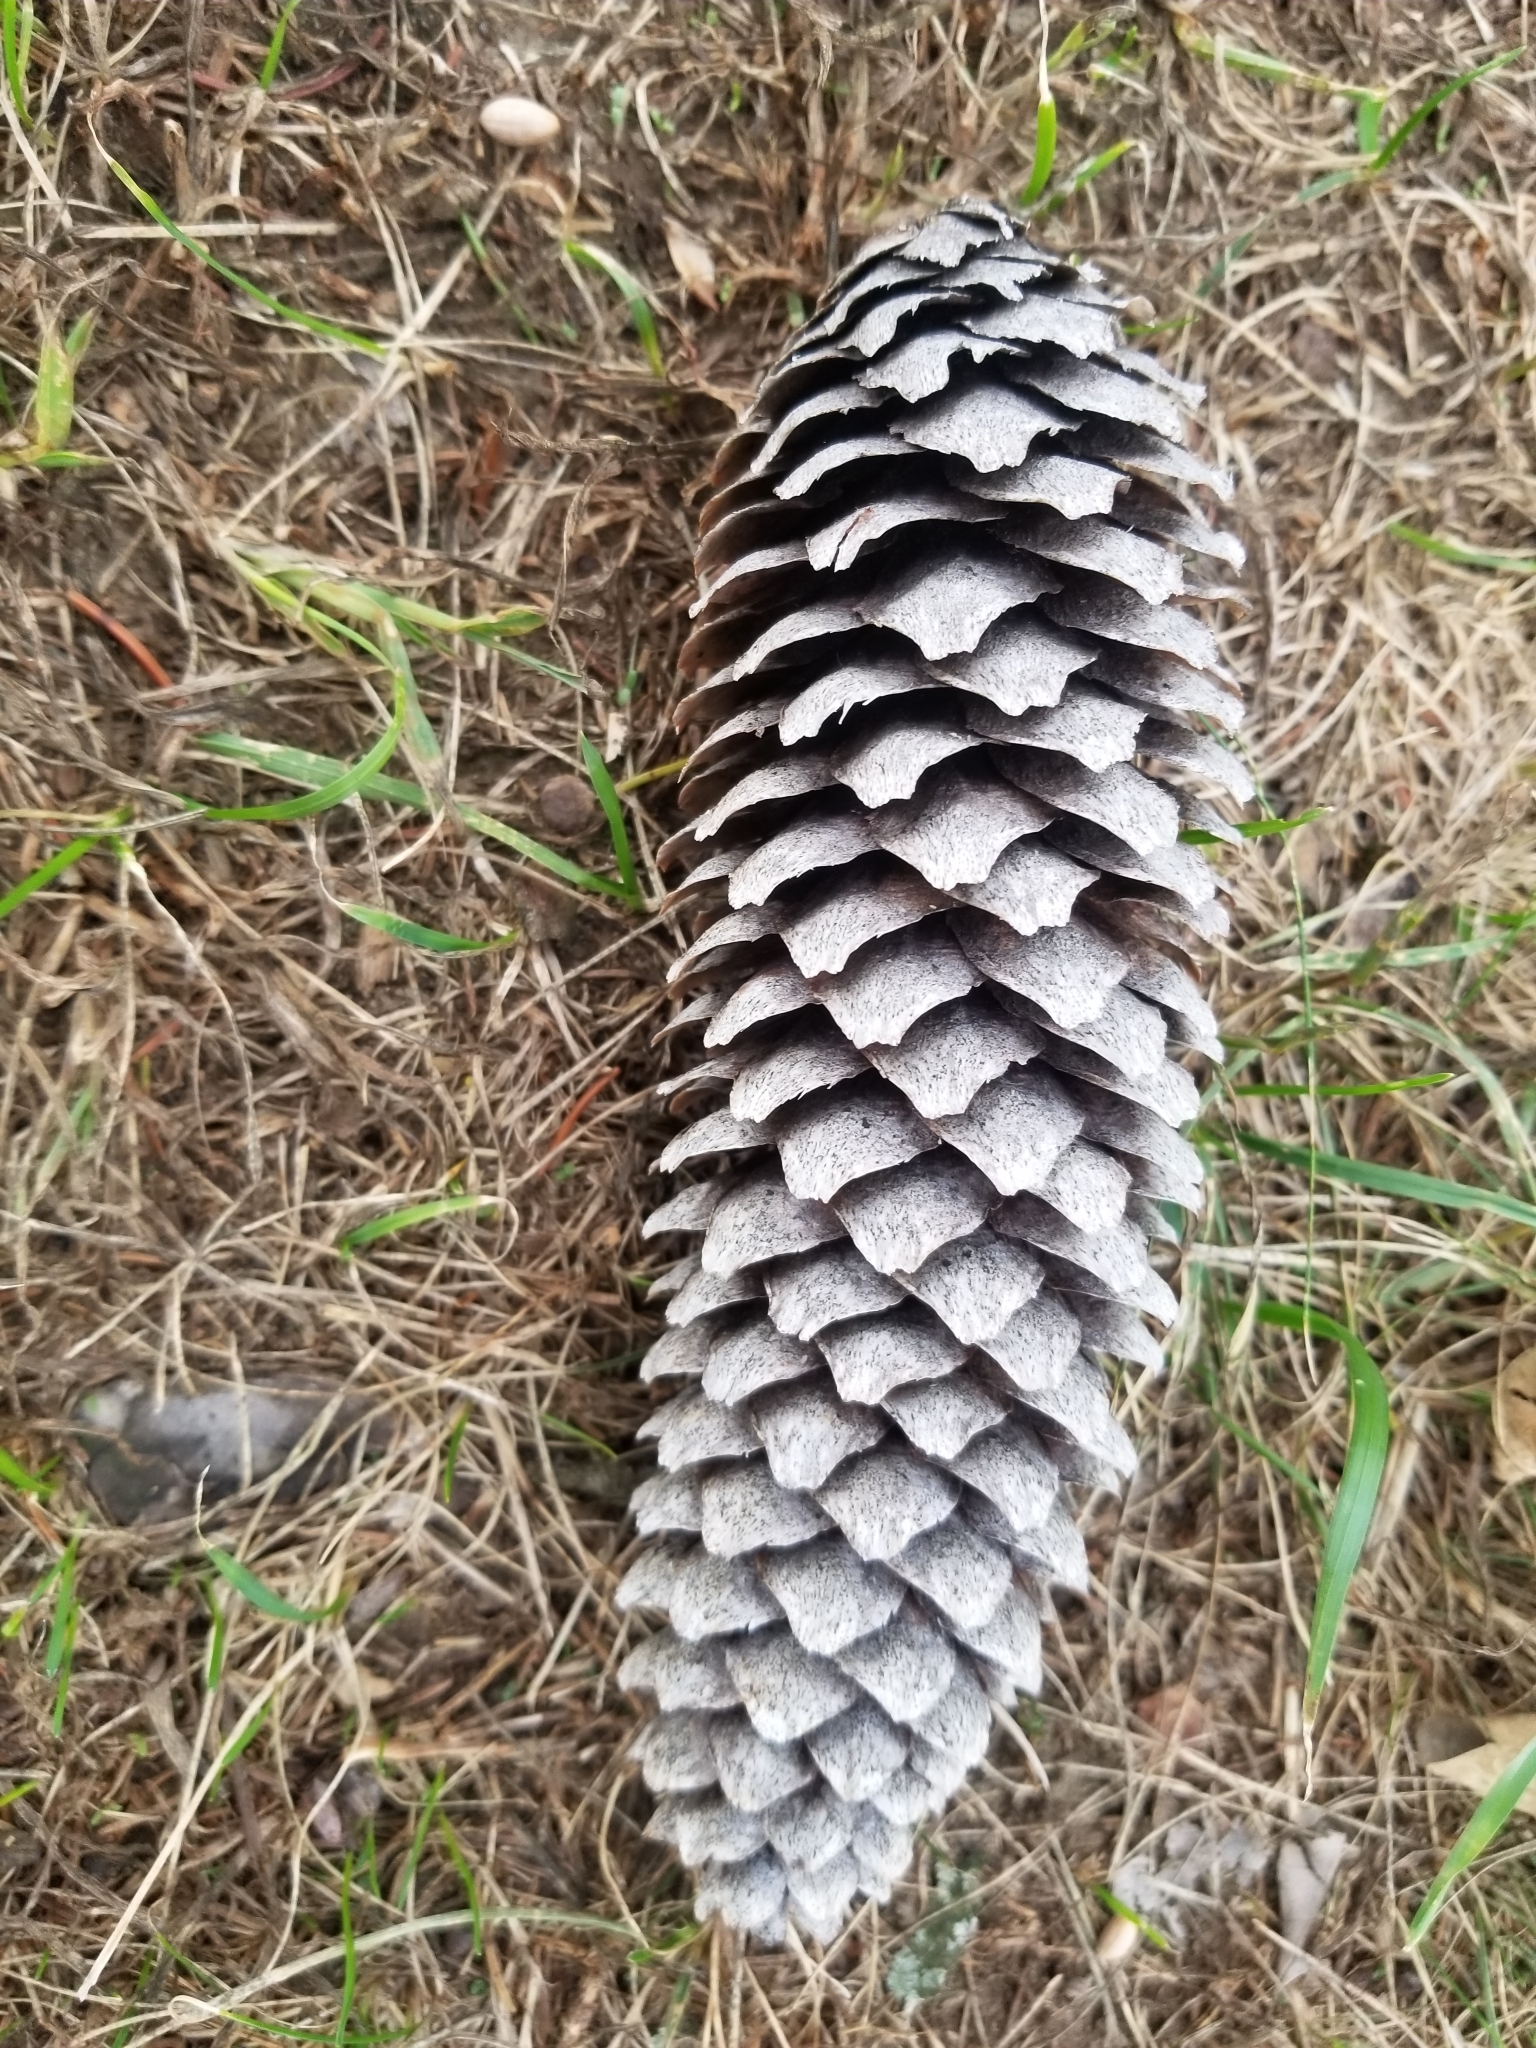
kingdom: Plantae
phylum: Tracheophyta
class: Pinopsida
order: Pinales
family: Pinaceae
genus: Picea
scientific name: Picea abies
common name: Norway spruce
